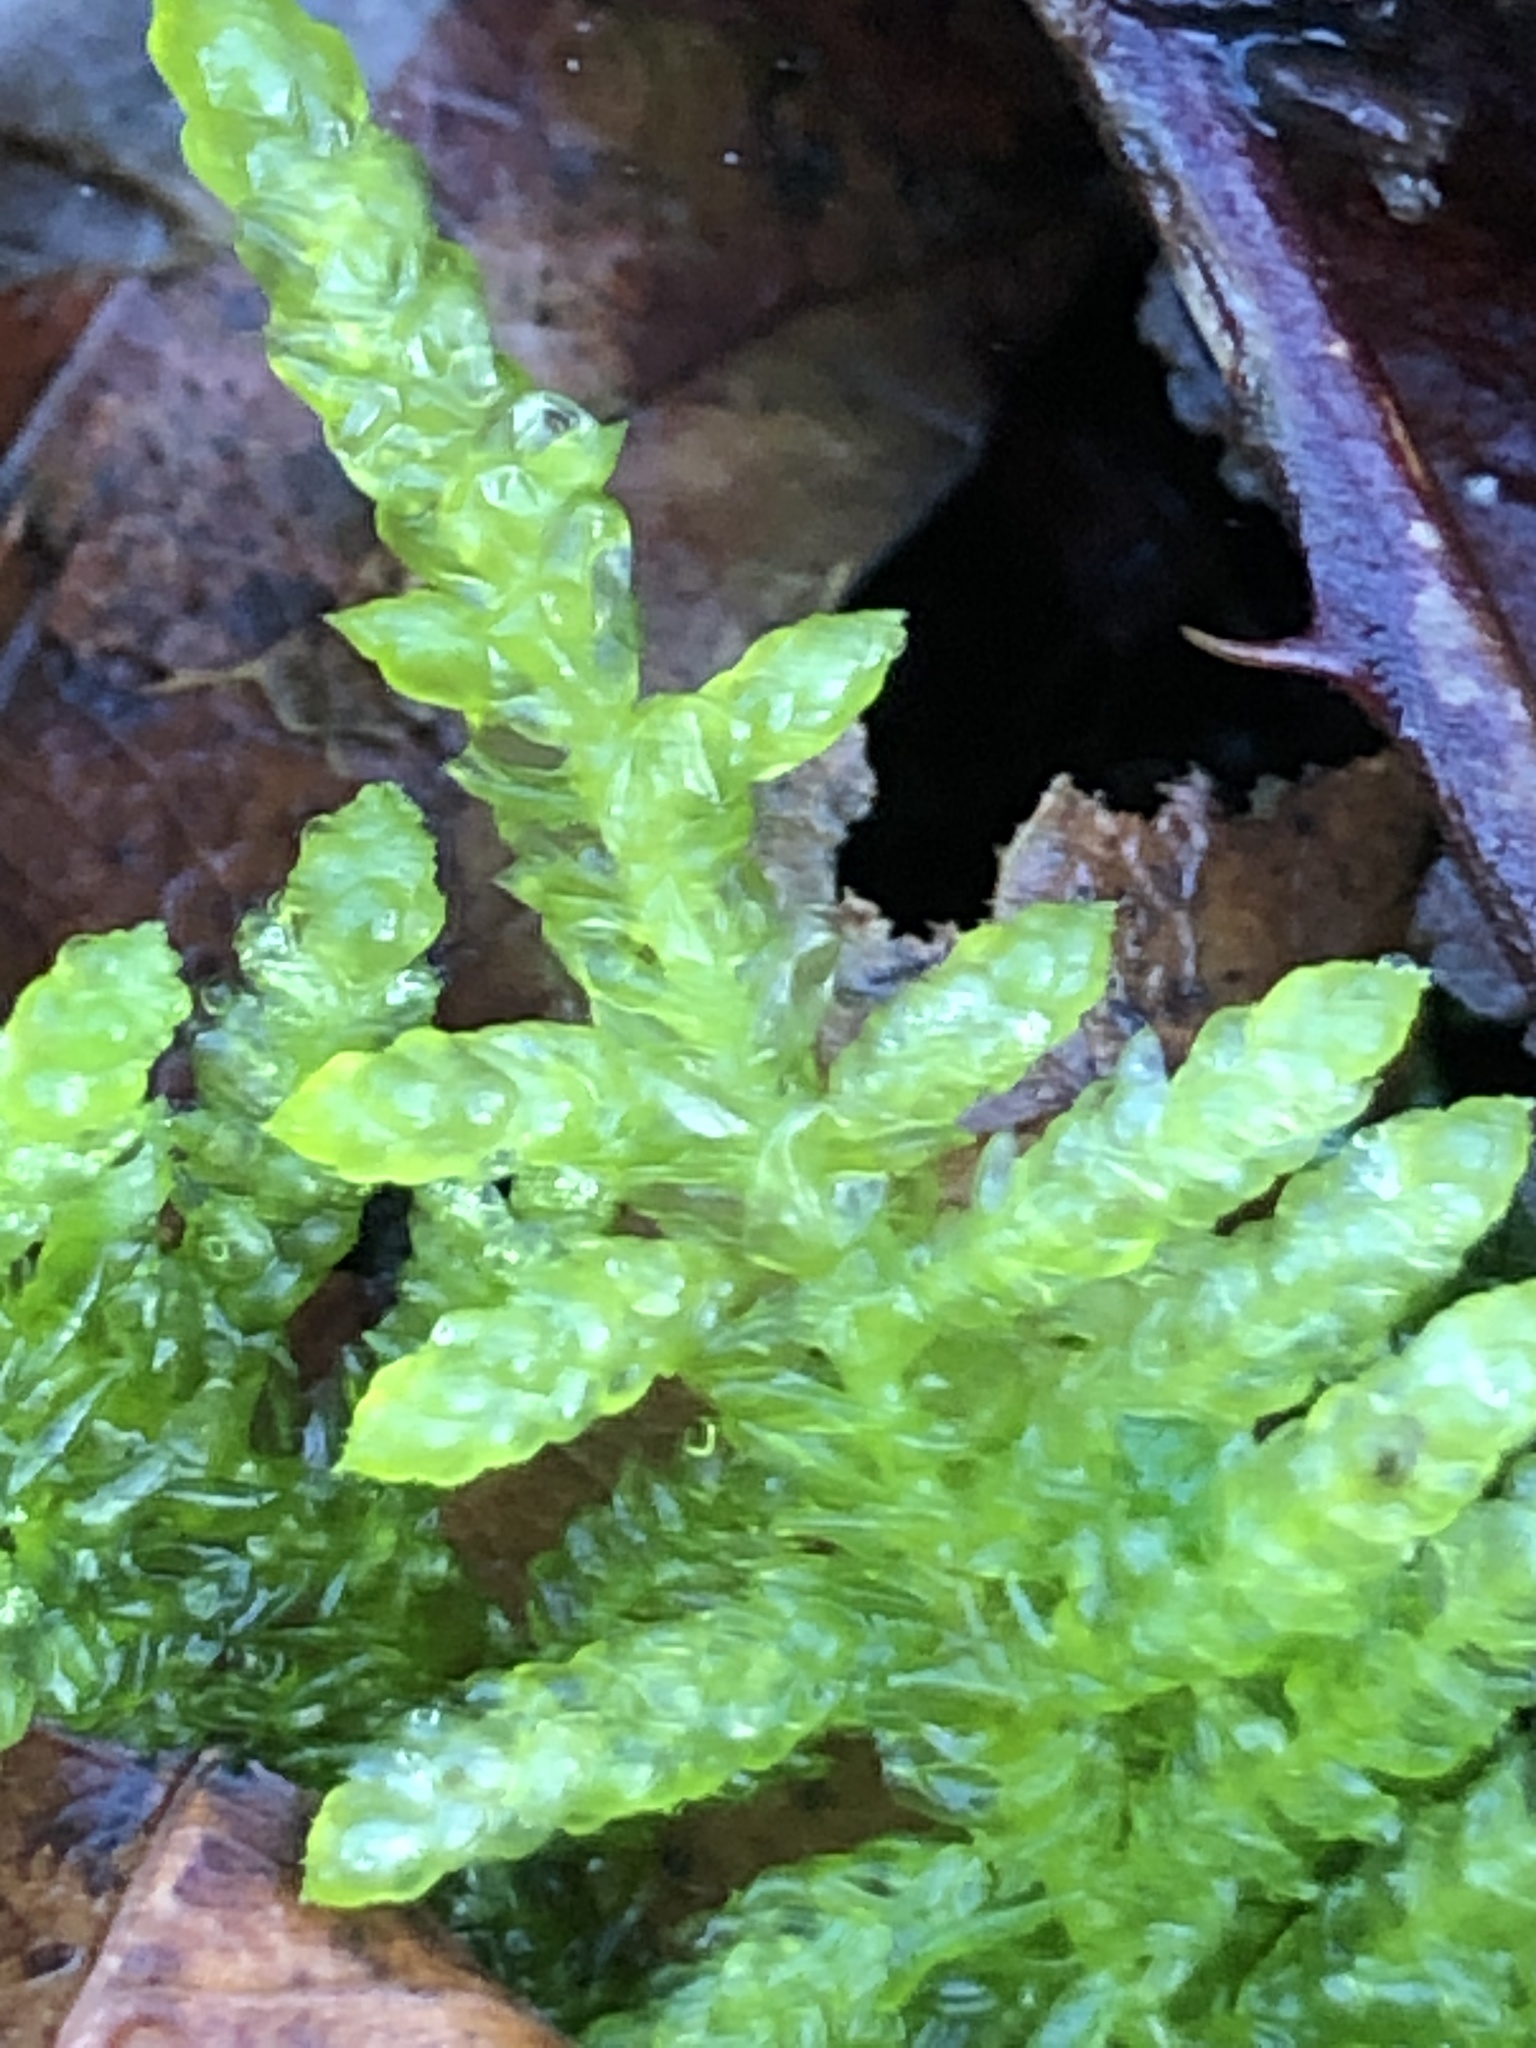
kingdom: Plantae
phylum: Bryophyta
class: Bryopsida
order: Hypnales
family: Brachytheciaceae
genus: Pseudoscleropodium
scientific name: Pseudoscleropodium purum
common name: Neat feather-moss
